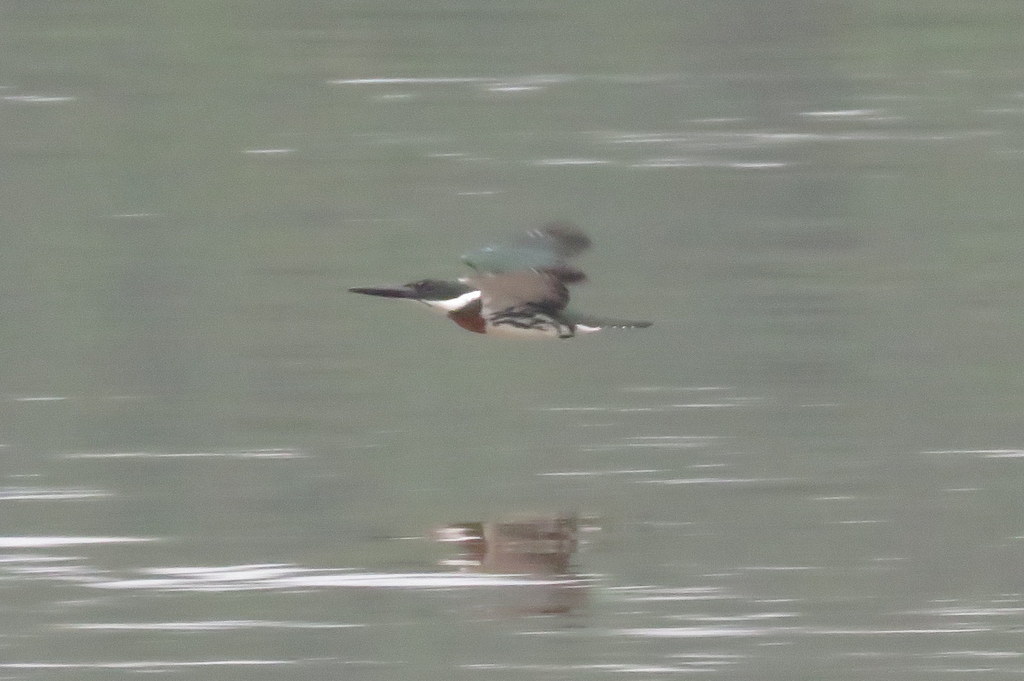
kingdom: Animalia
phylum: Chordata
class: Aves
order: Coraciiformes
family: Alcedinidae
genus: Chloroceryle
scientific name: Chloroceryle amazona
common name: Amazon kingfisher
